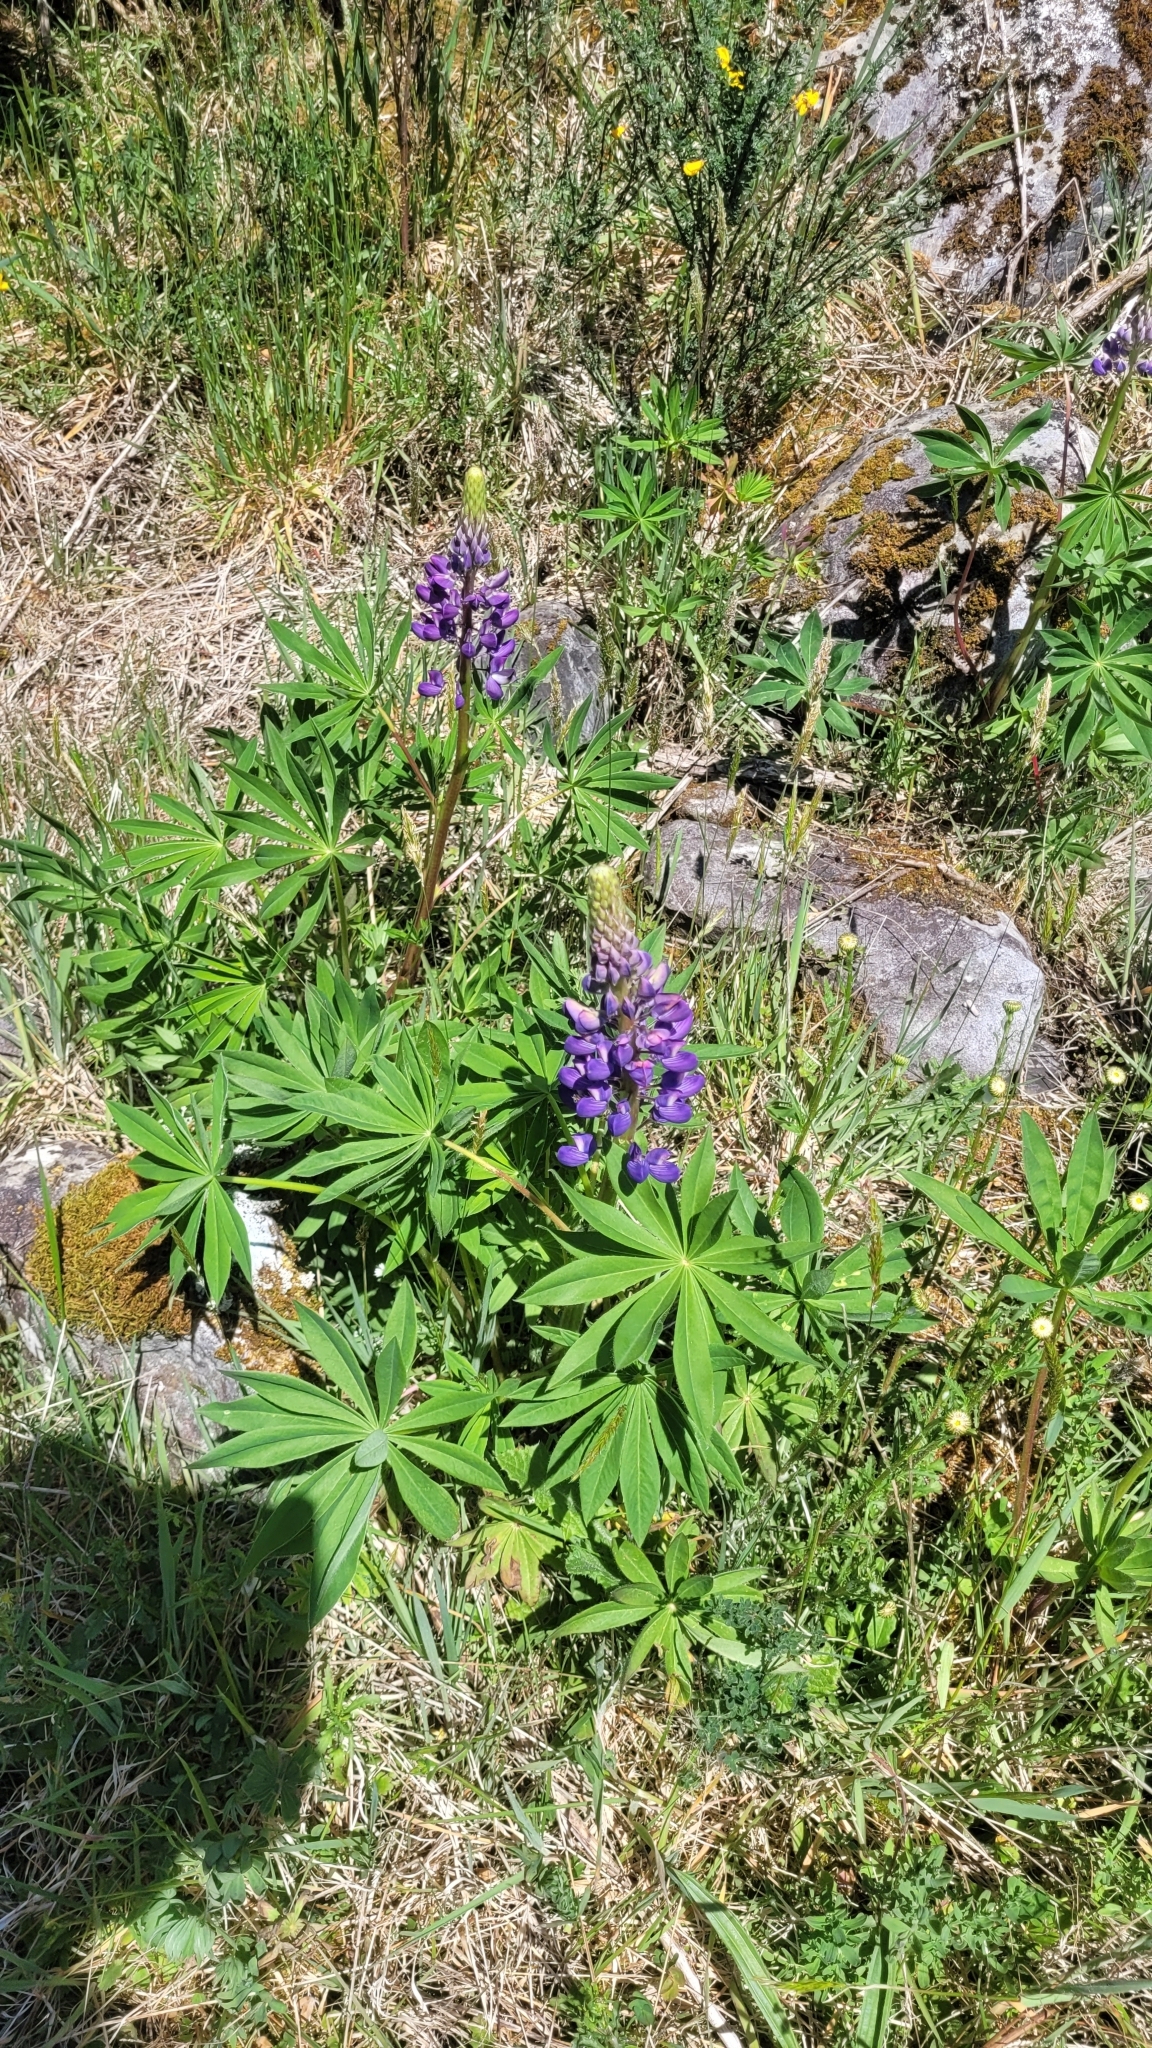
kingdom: Plantae
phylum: Tracheophyta
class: Magnoliopsida
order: Fabales
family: Fabaceae
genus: Lupinus
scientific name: Lupinus polyphyllus
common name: Garden lupin
